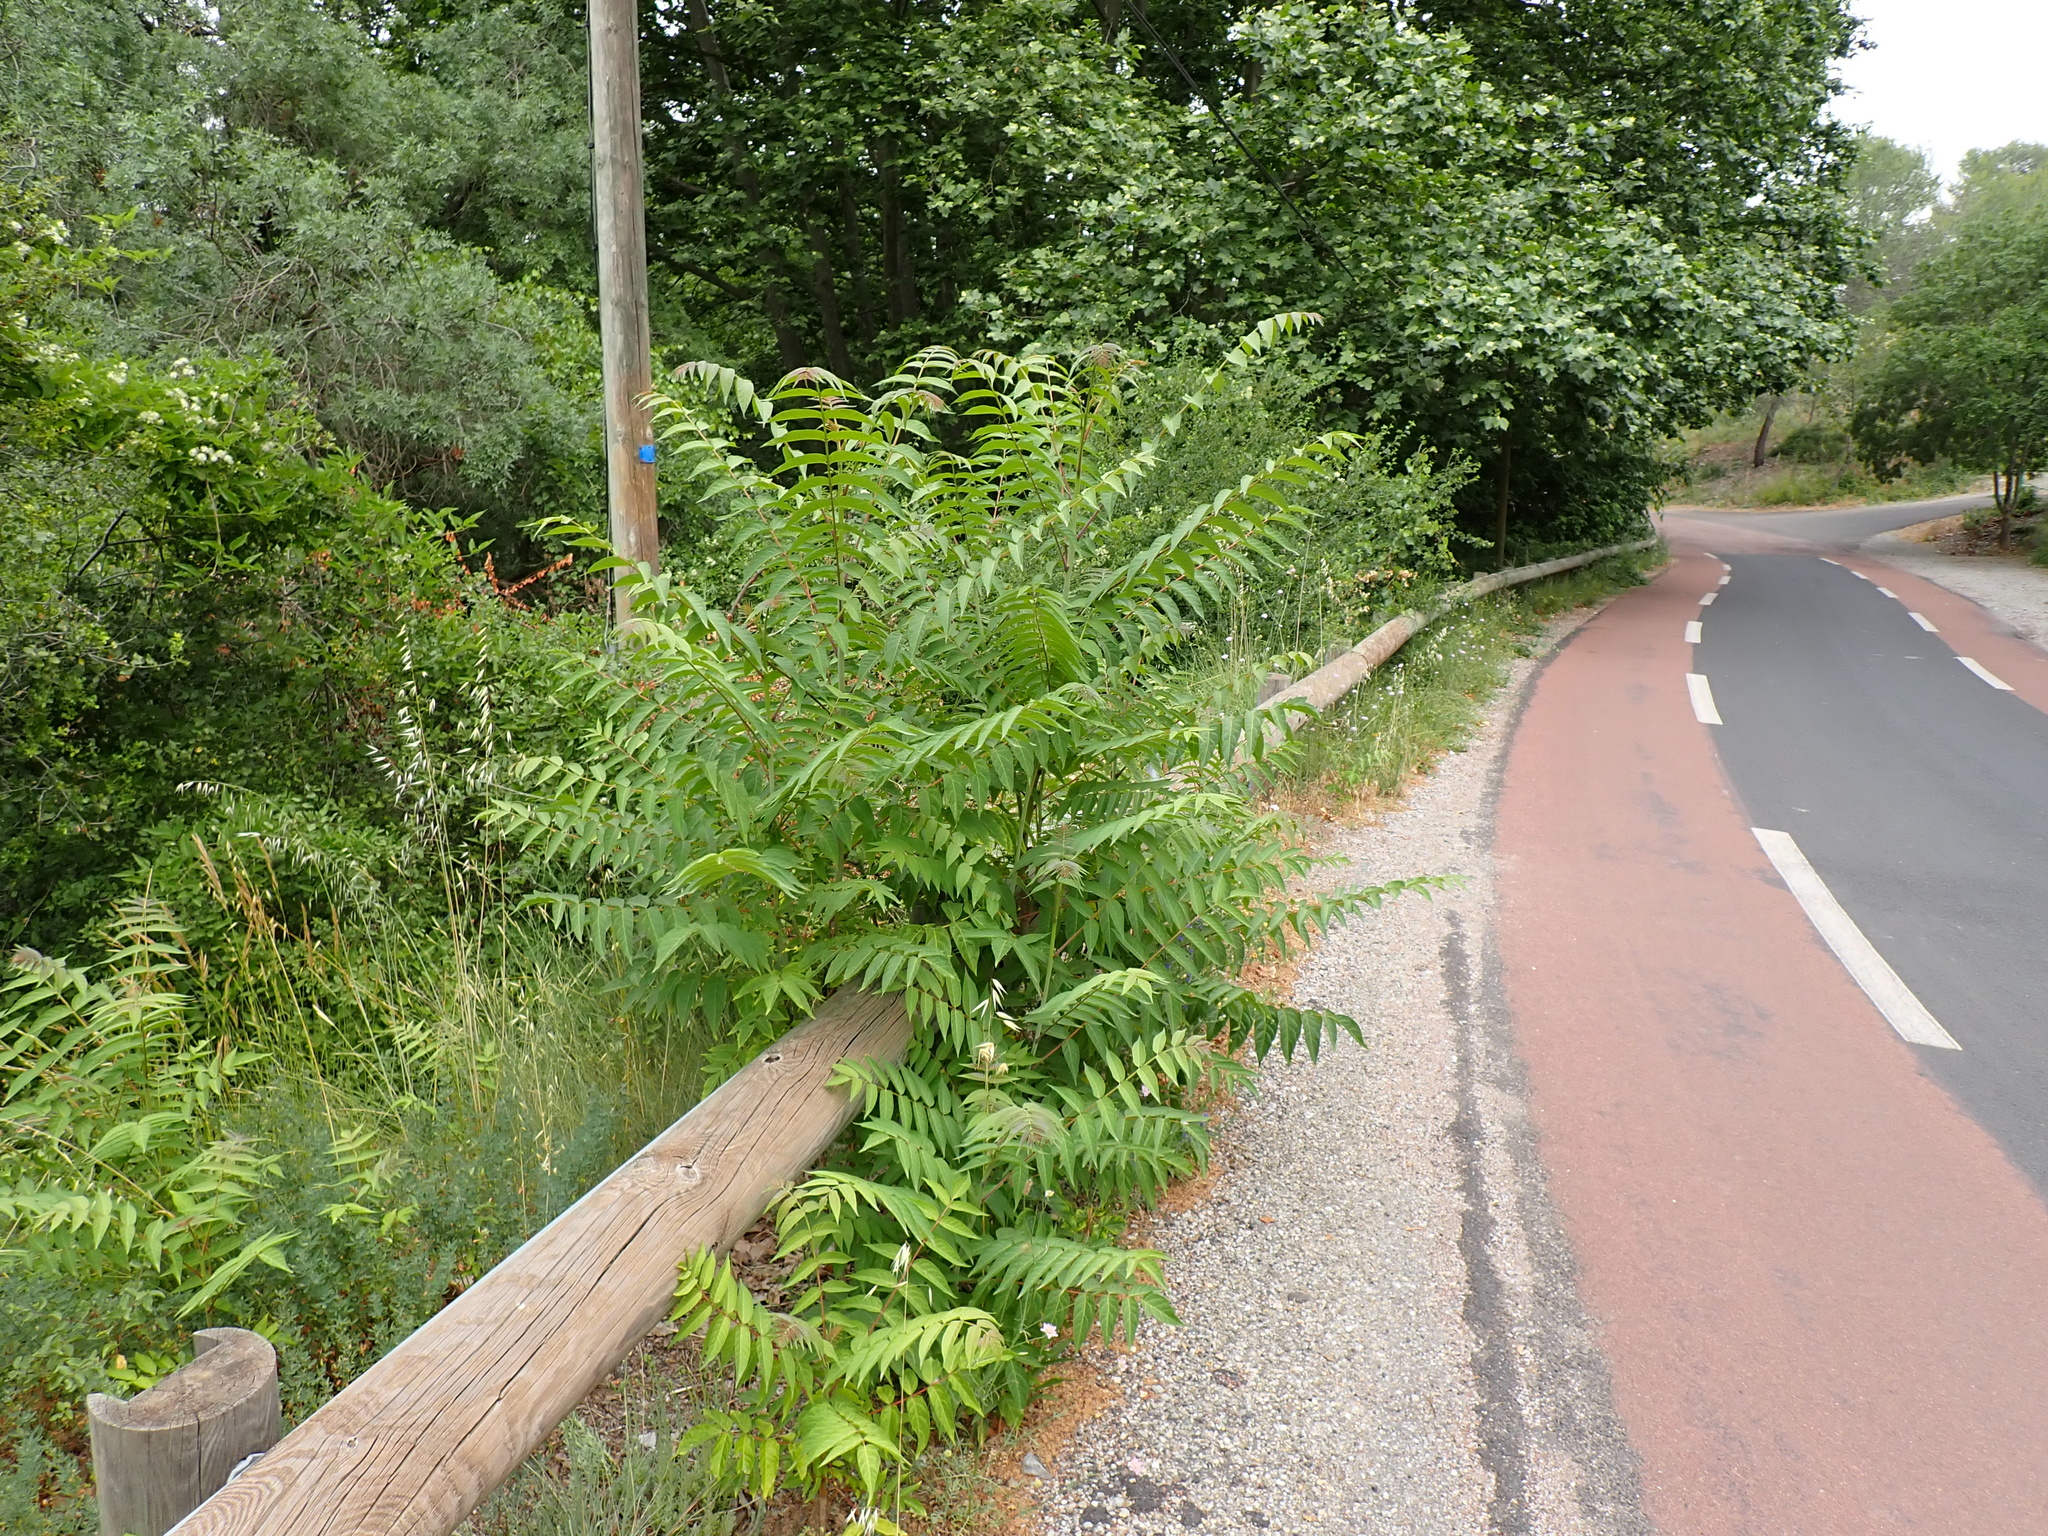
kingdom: Plantae
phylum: Tracheophyta
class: Magnoliopsida
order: Sapindales
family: Simaroubaceae
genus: Ailanthus
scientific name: Ailanthus altissima
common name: Tree-of-heaven
